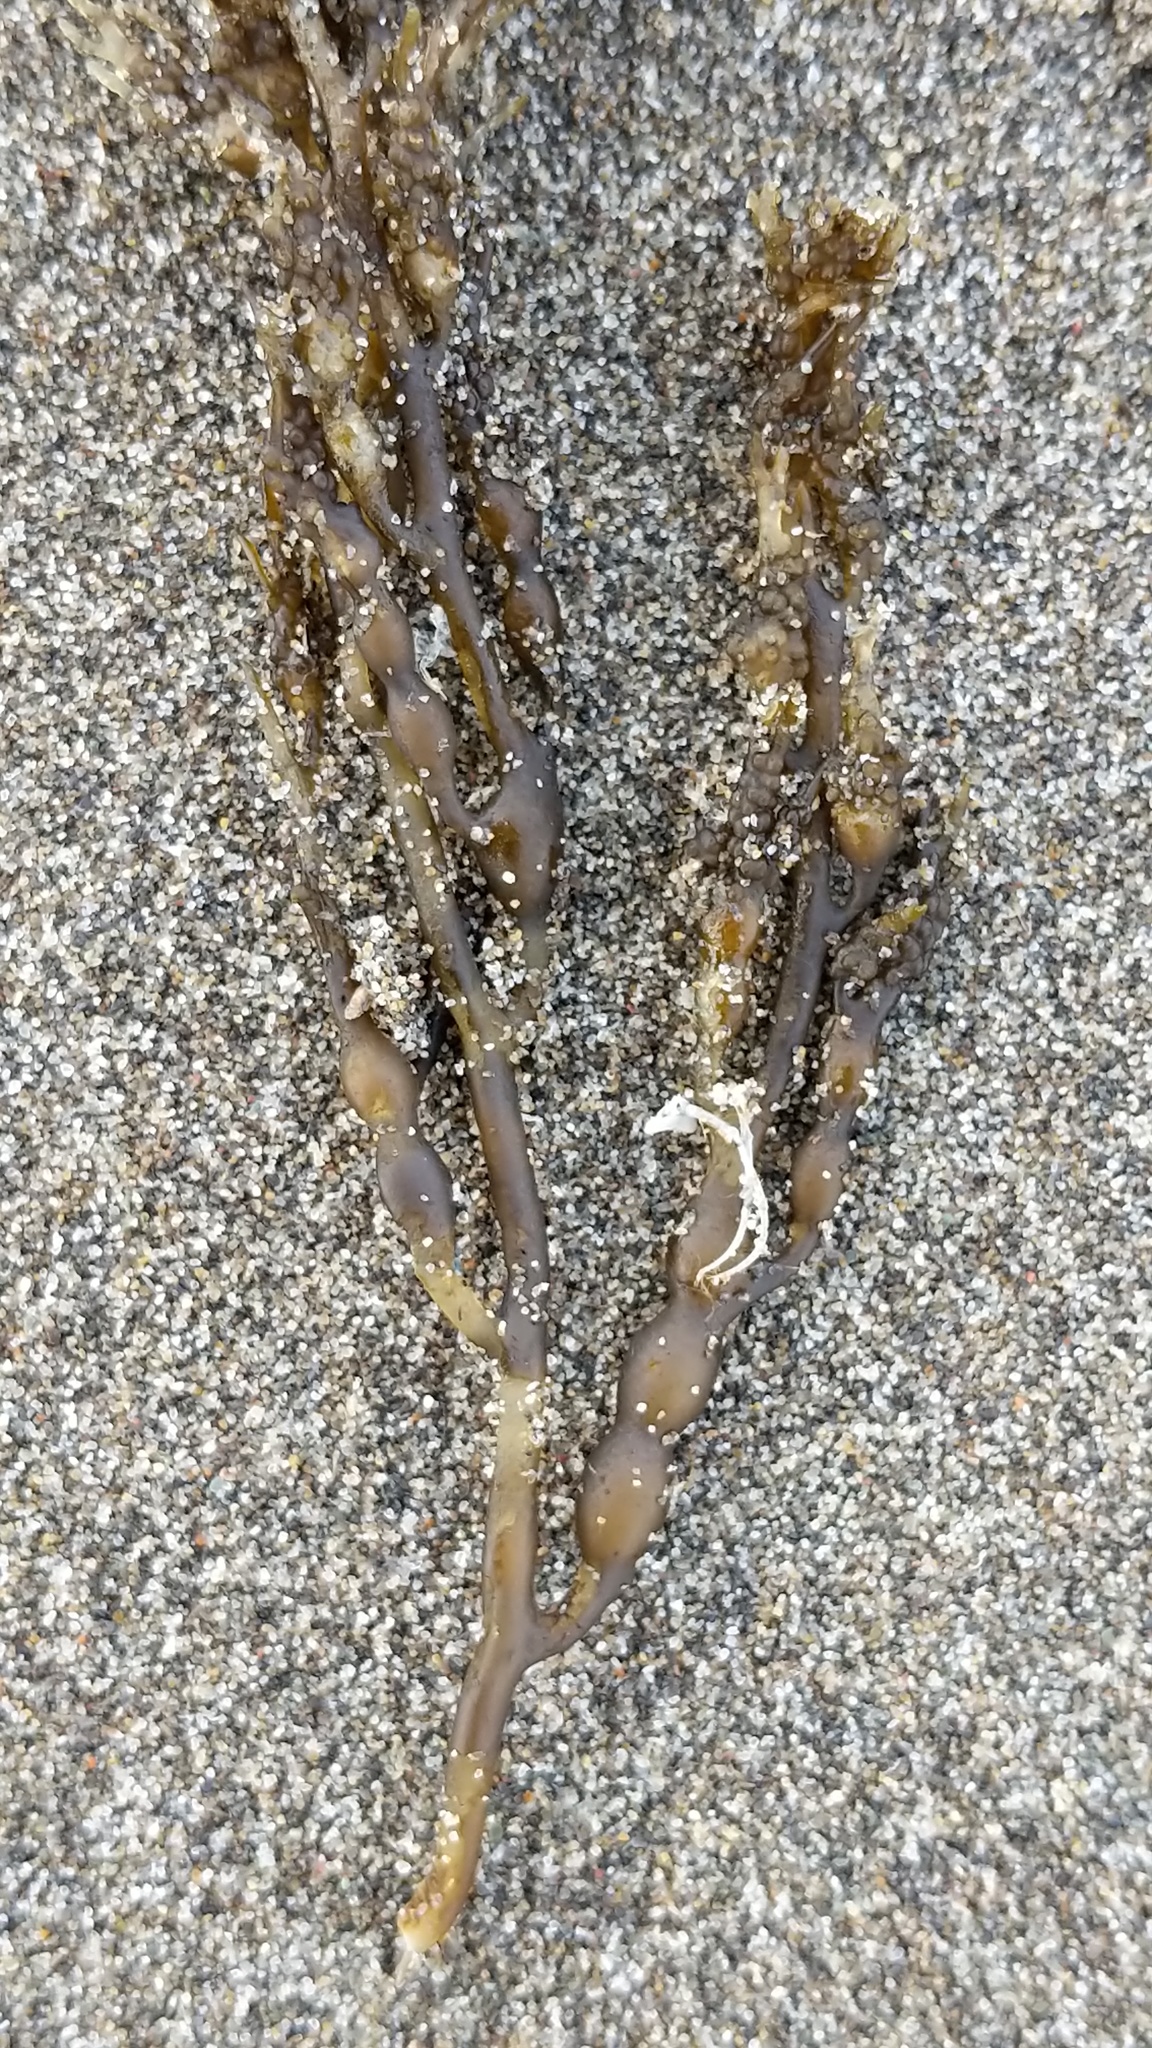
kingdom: Chromista
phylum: Ochrophyta
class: Phaeophyceae
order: Fucales
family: Sargassaceae
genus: Stephanocystis
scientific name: Stephanocystis
